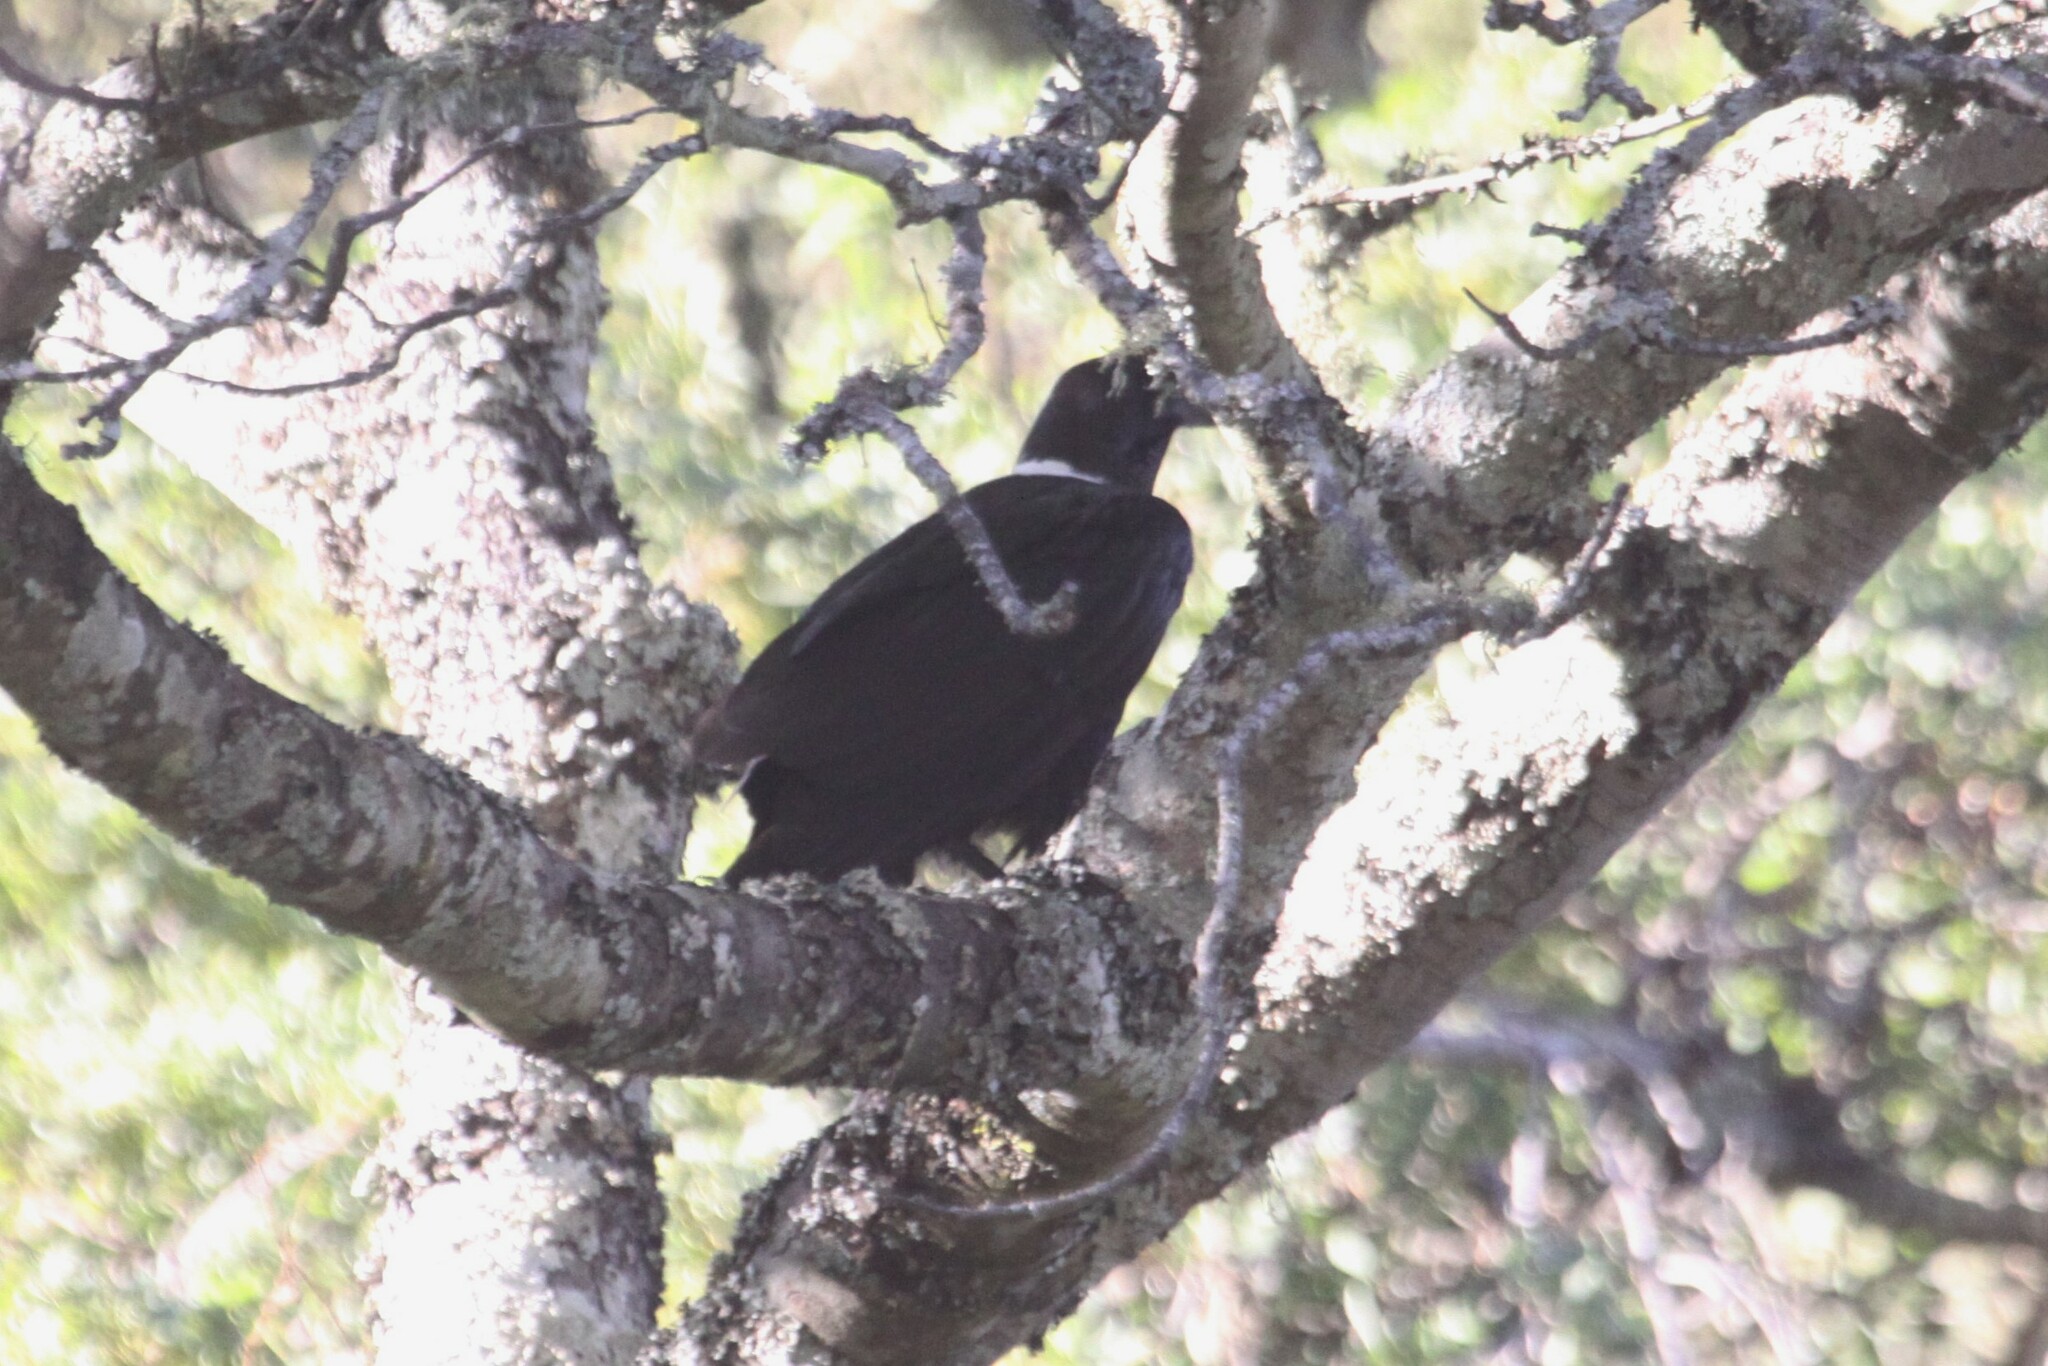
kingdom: Animalia
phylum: Chordata
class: Aves
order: Passeriformes
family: Corvidae
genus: Corvus
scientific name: Corvus albicollis
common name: White-necked raven
